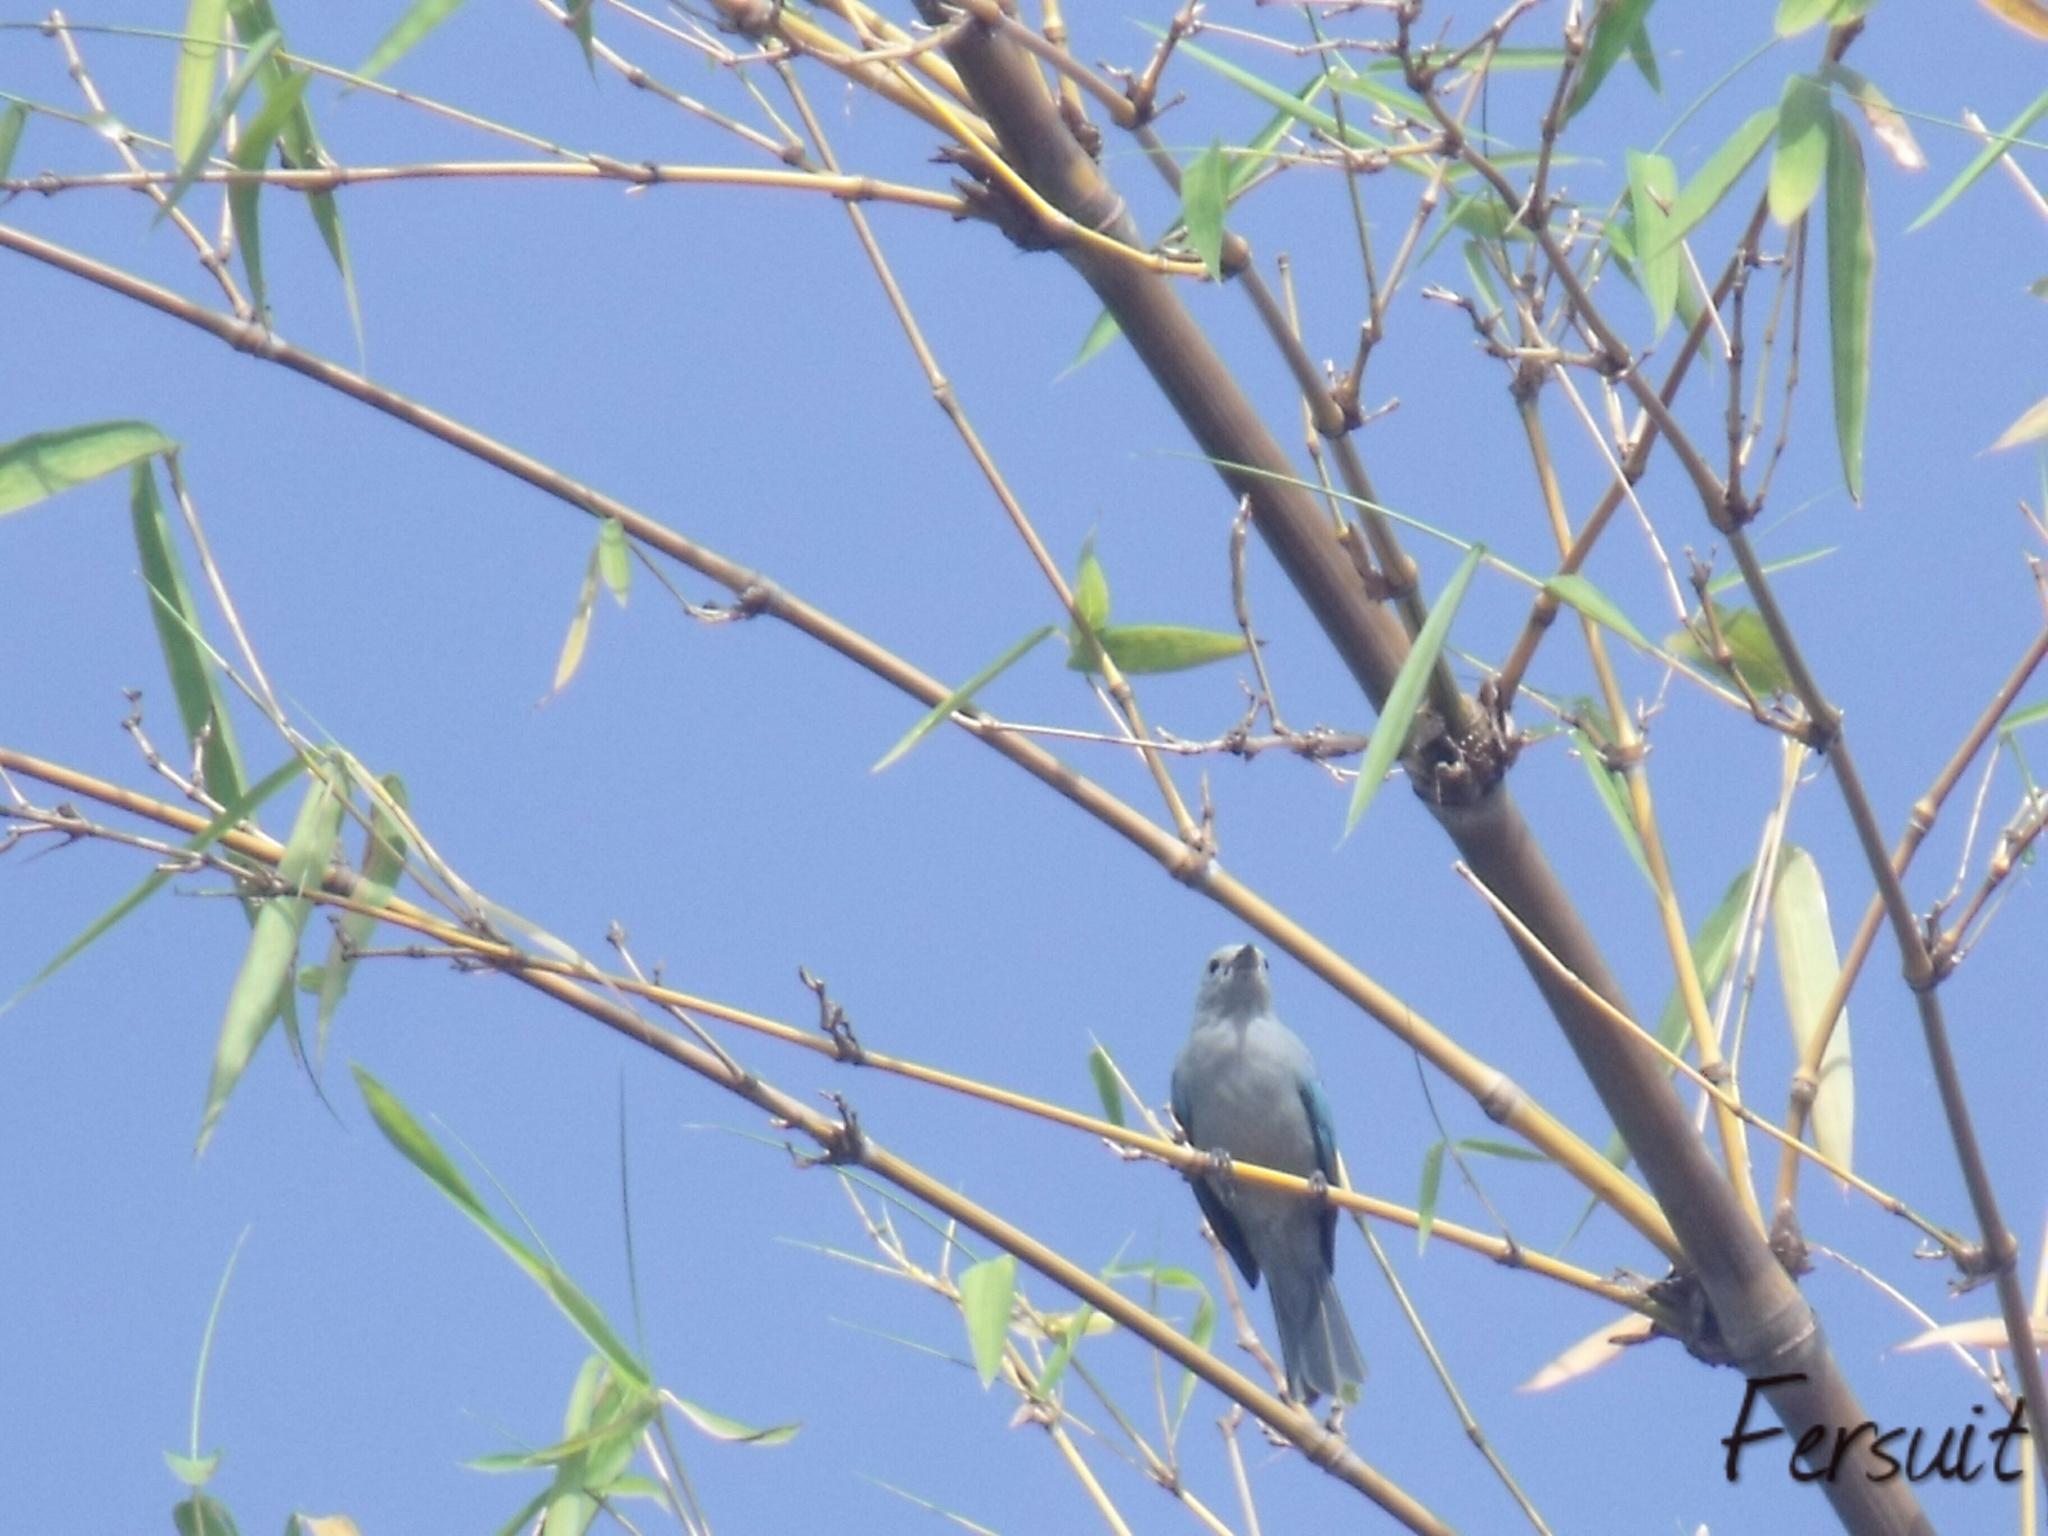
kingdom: Animalia
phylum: Chordata
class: Aves
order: Passeriformes
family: Thraupidae
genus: Thraupis
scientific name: Thraupis episcopus
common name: Blue-grey tanager
